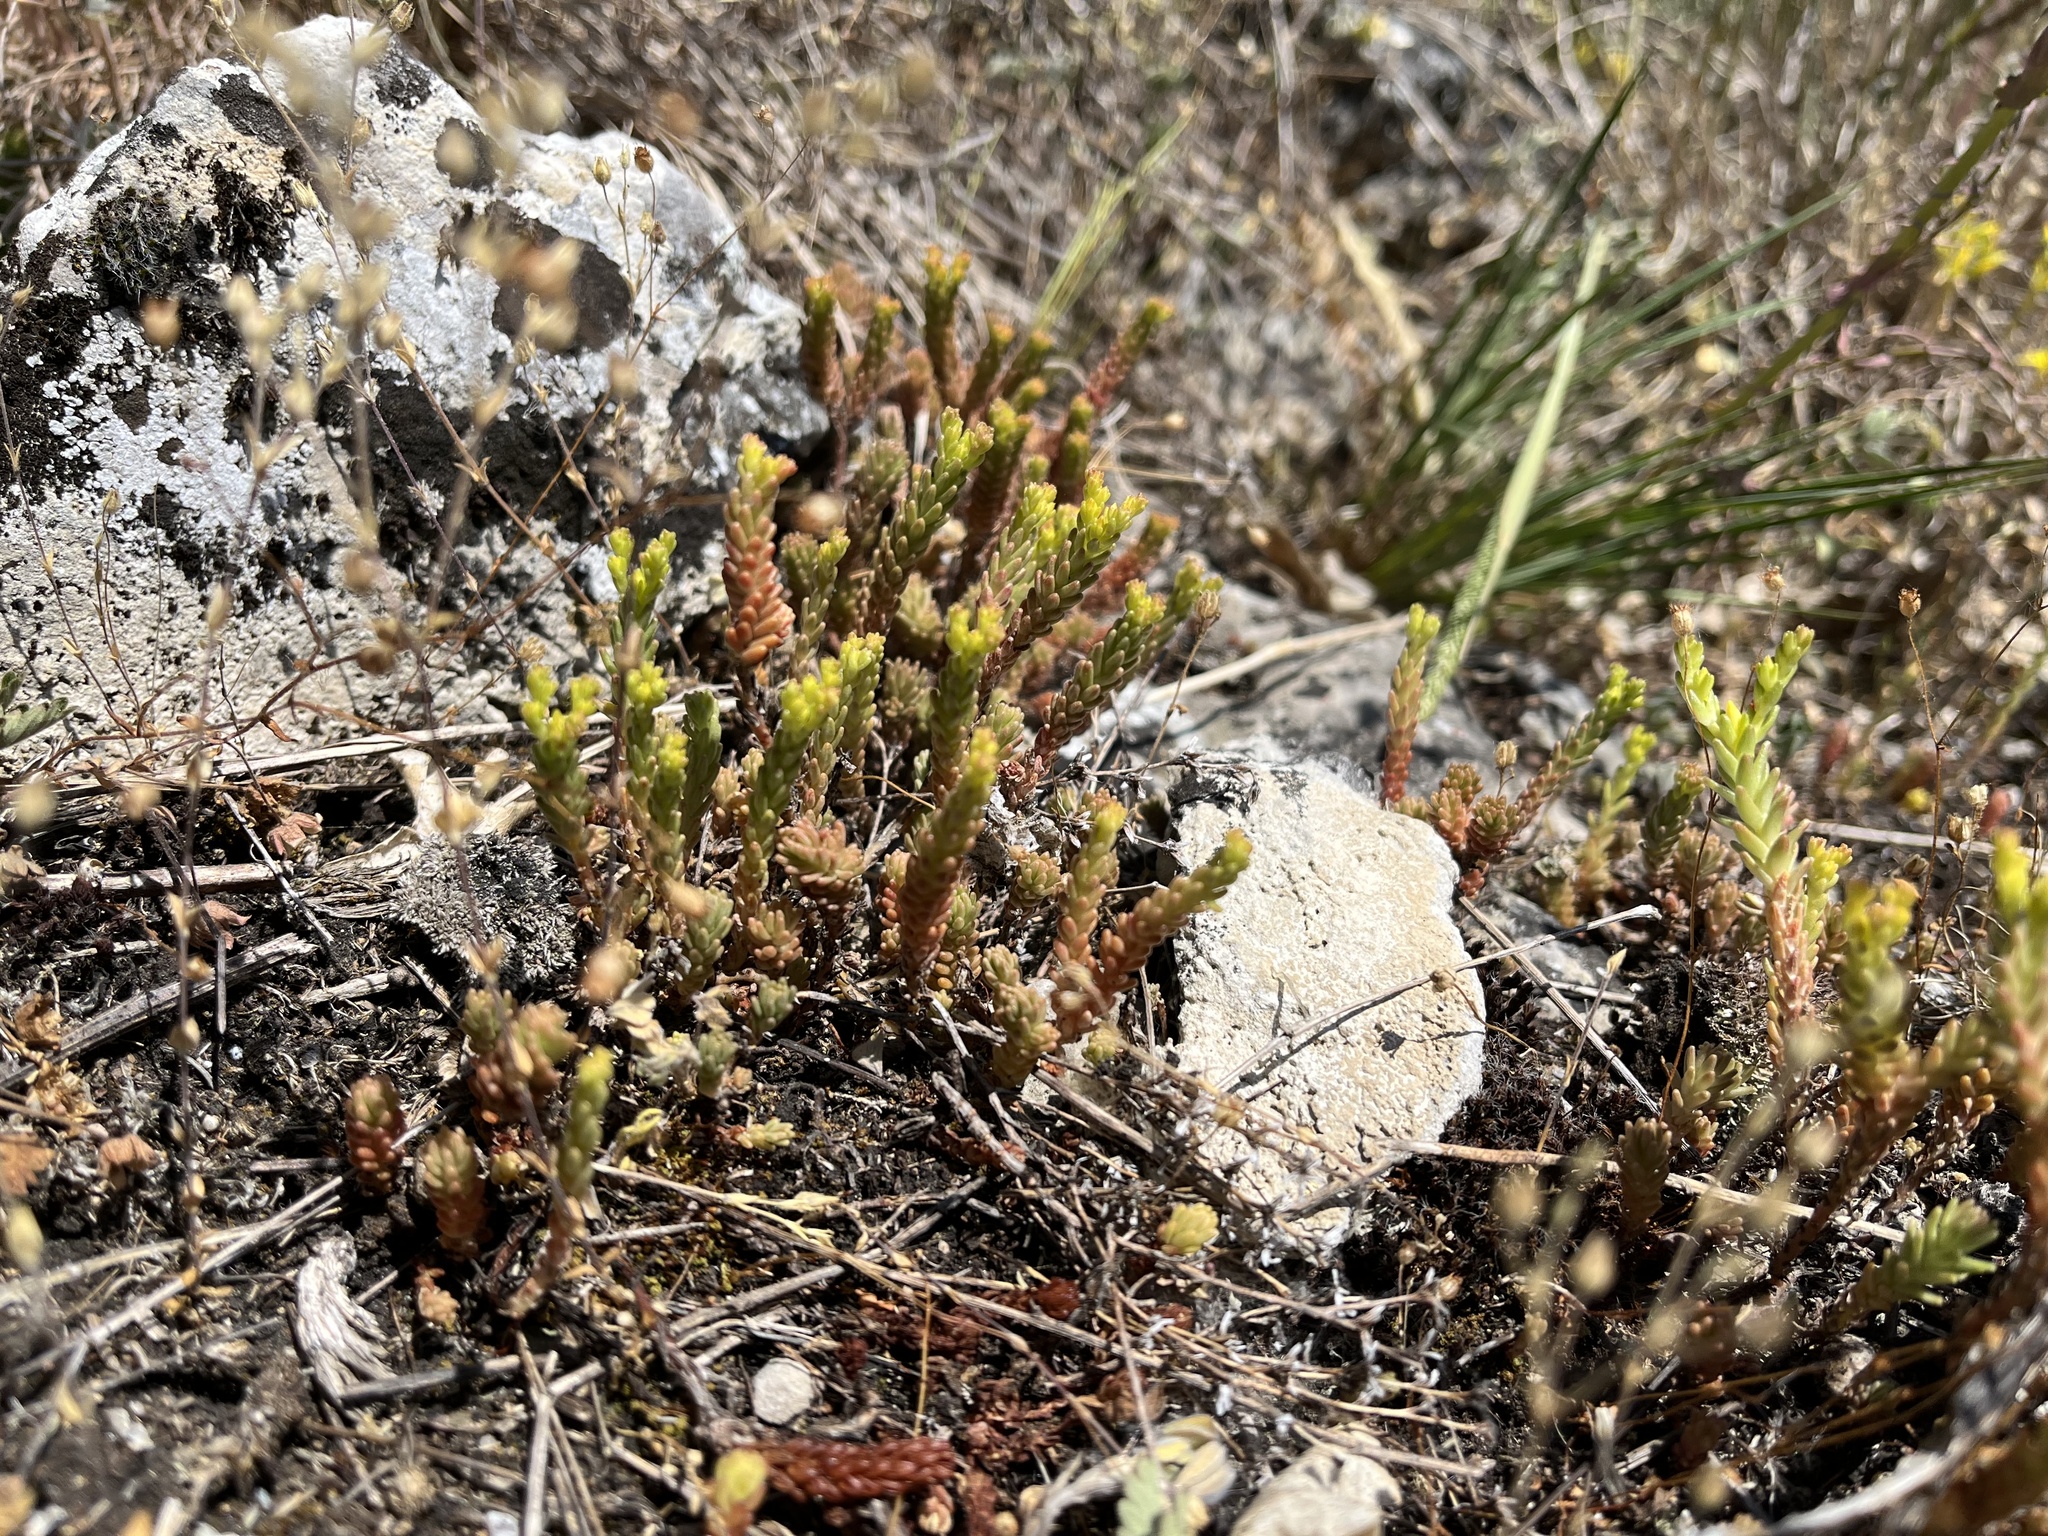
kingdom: Plantae
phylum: Tracheophyta
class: Magnoliopsida
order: Saxifragales
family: Crassulaceae
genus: Sedum
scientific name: Sedum sexangulare
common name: Tasteless stonecrop
